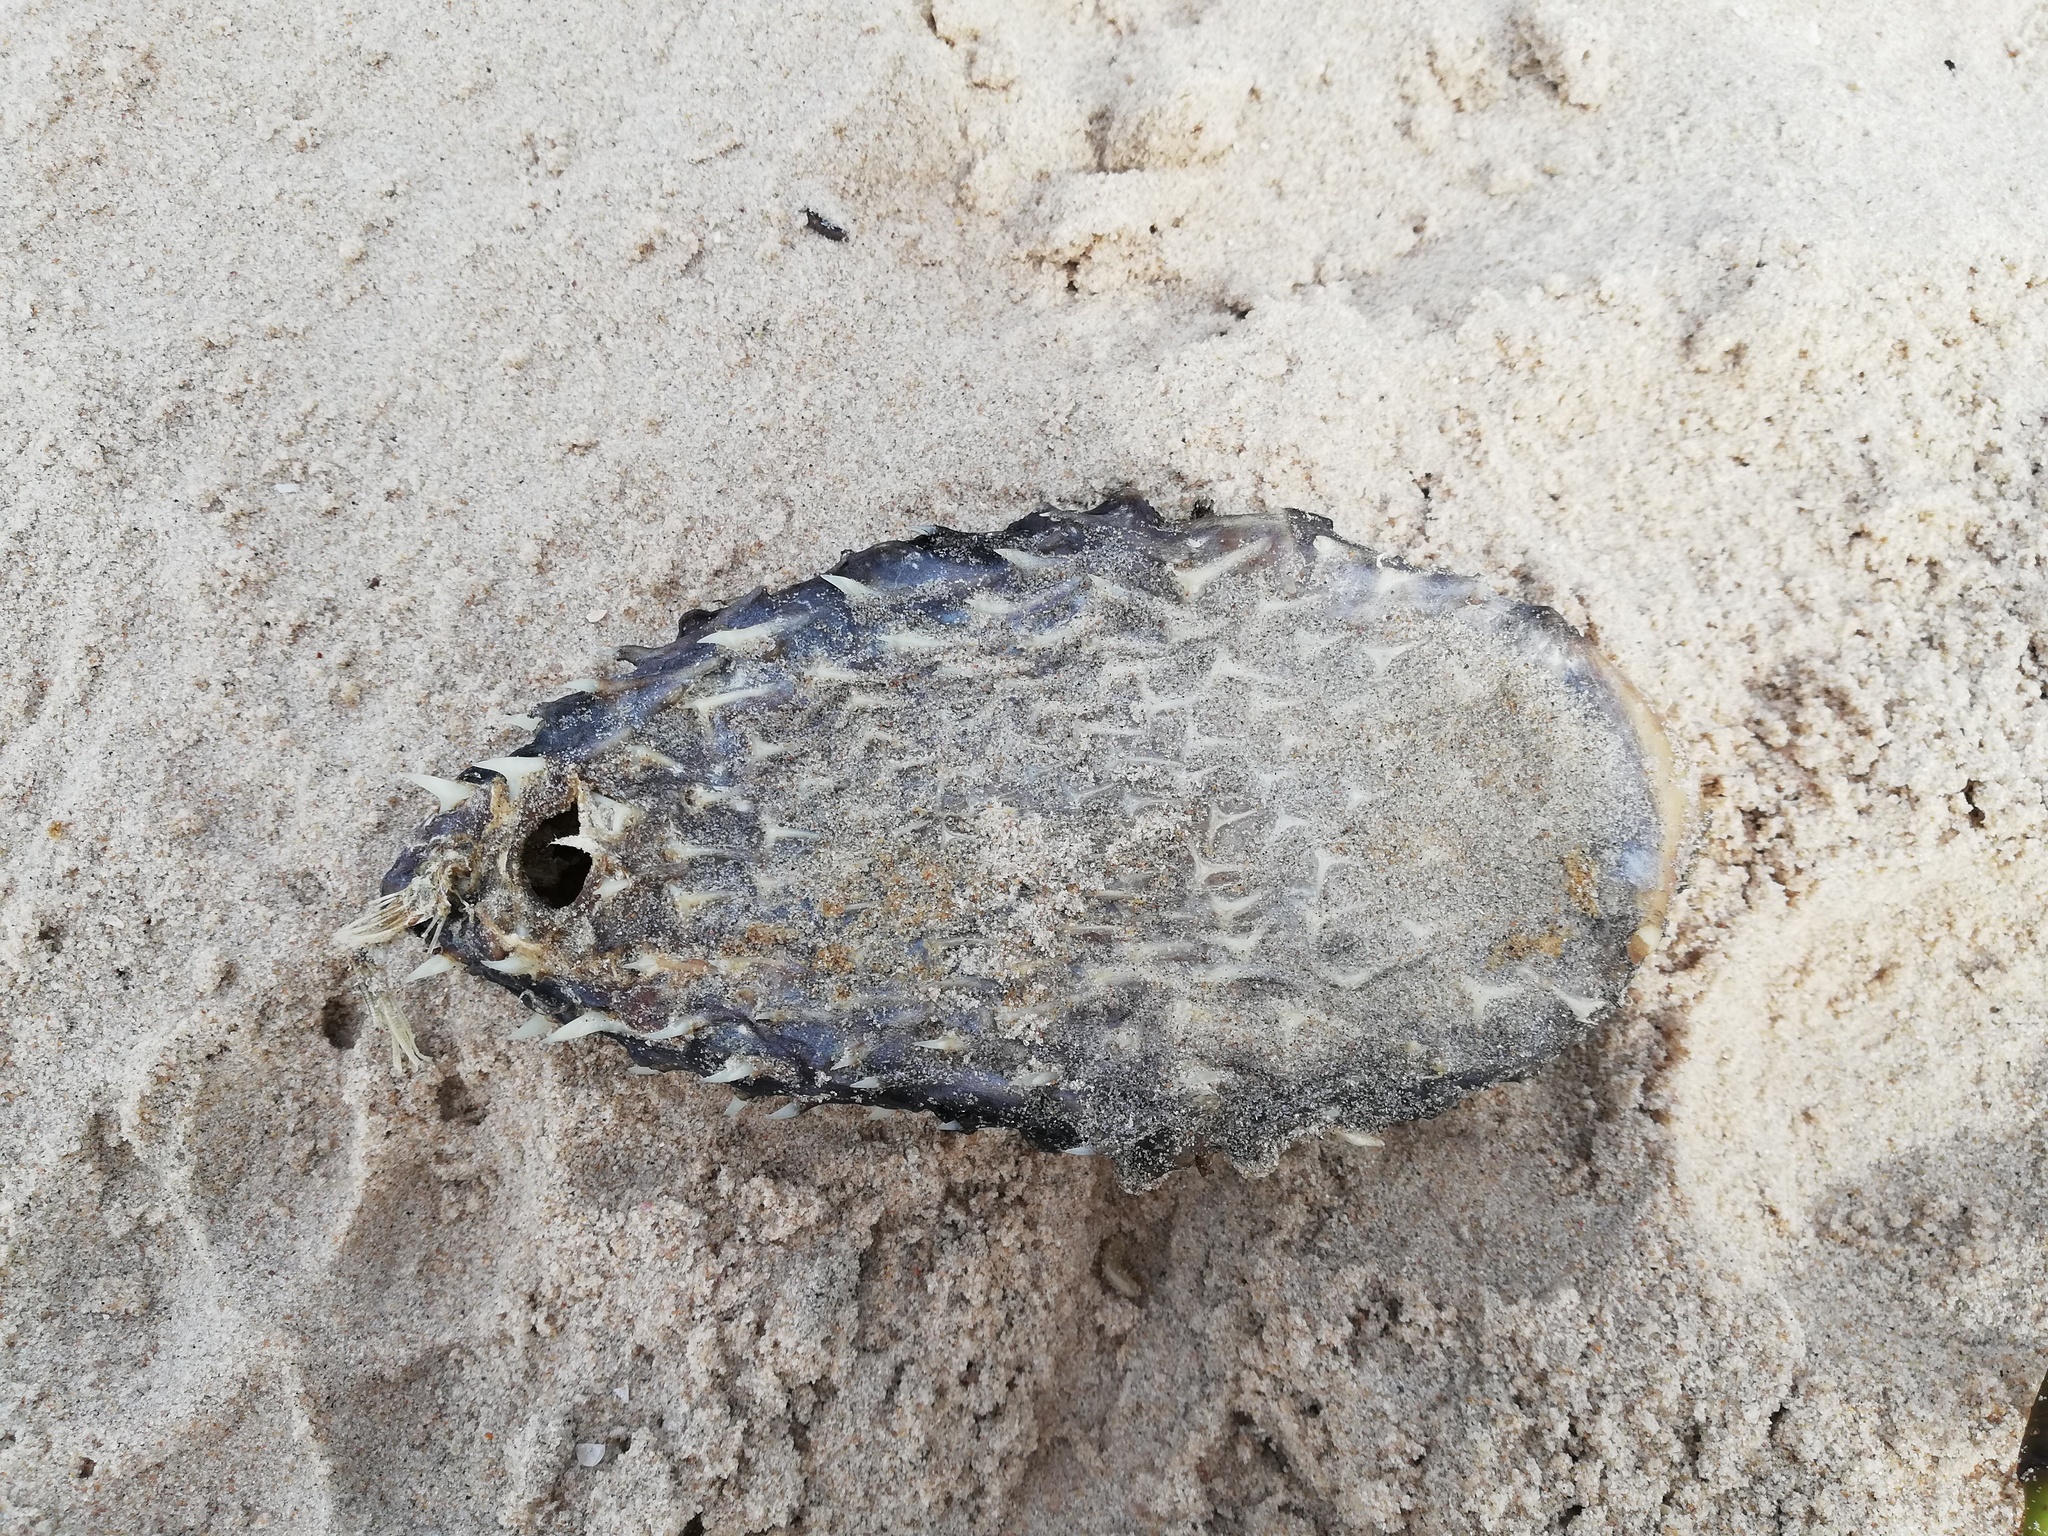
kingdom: Animalia
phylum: Chordata
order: Tetraodontiformes
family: Diodontidae
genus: Chilomycterus
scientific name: Chilomycterus spinosus
